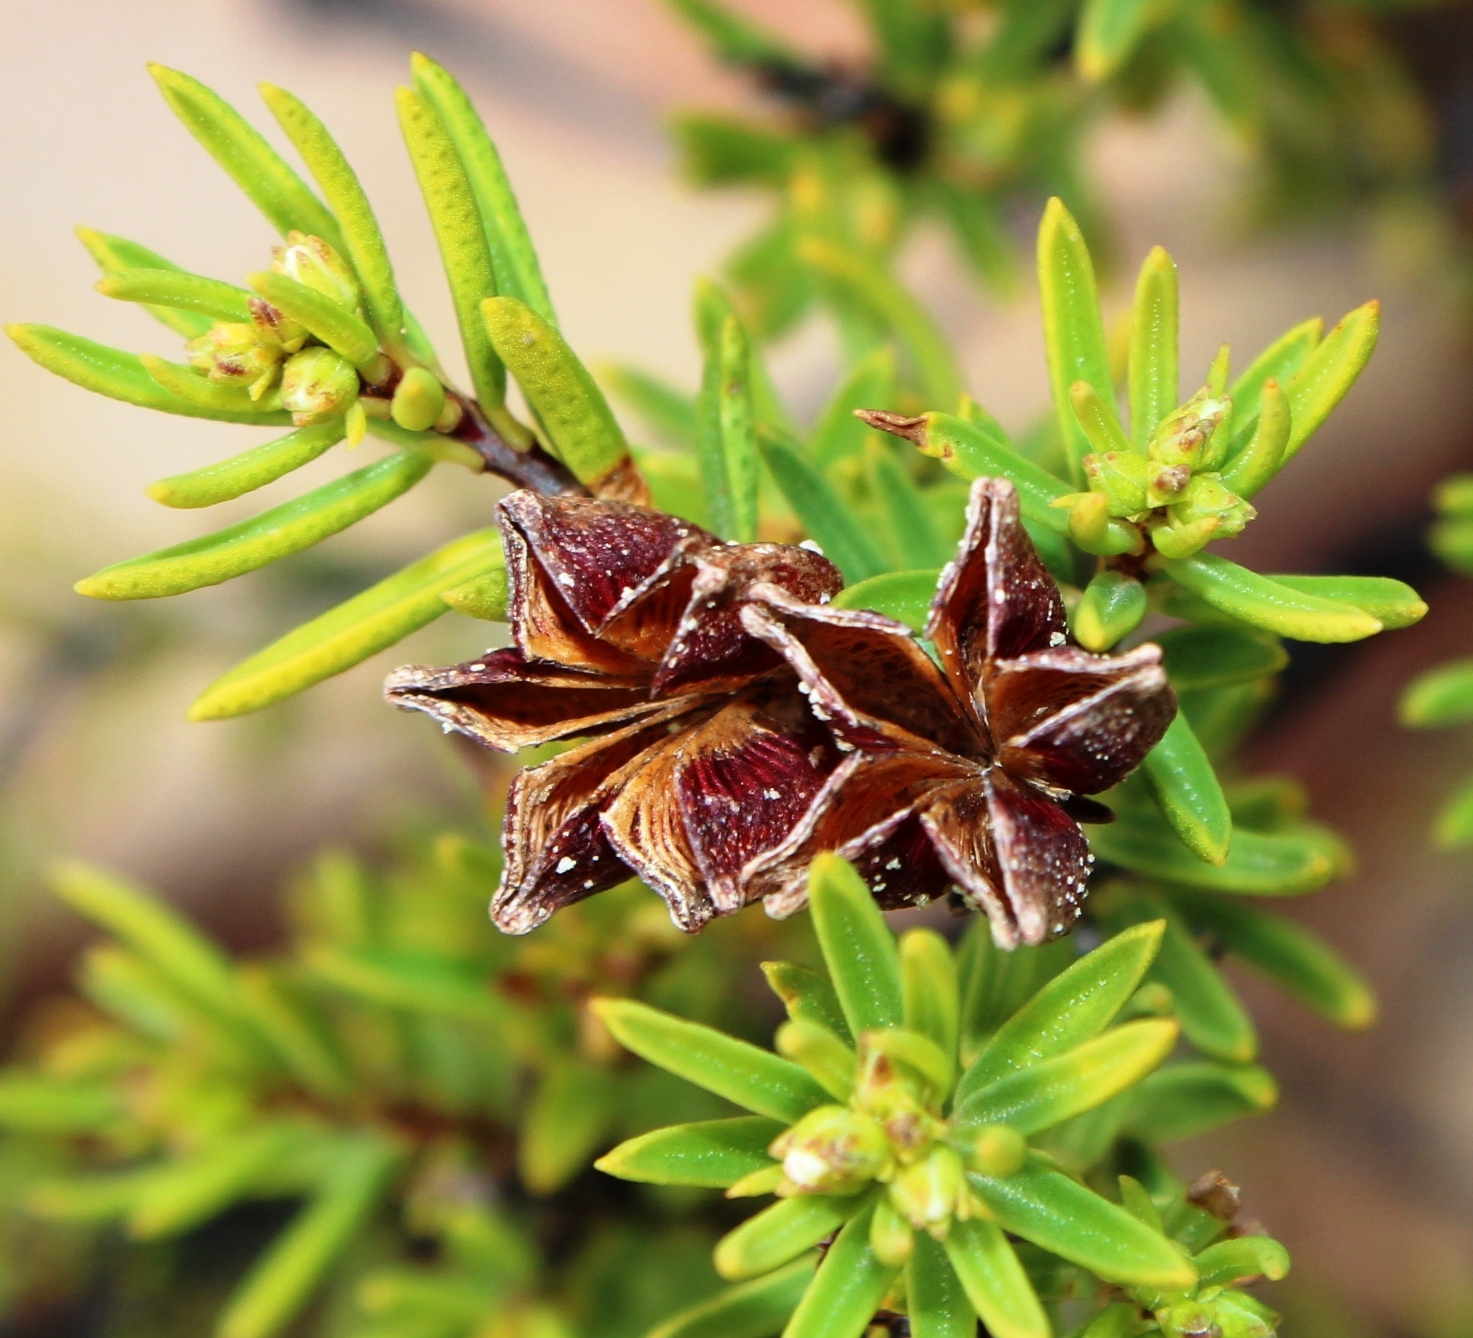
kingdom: Plantae
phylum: Tracheophyta
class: Magnoliopsida
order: Sapindales
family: Rutaceae
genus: Acmadenia
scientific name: Acmadenia wittebergensis
